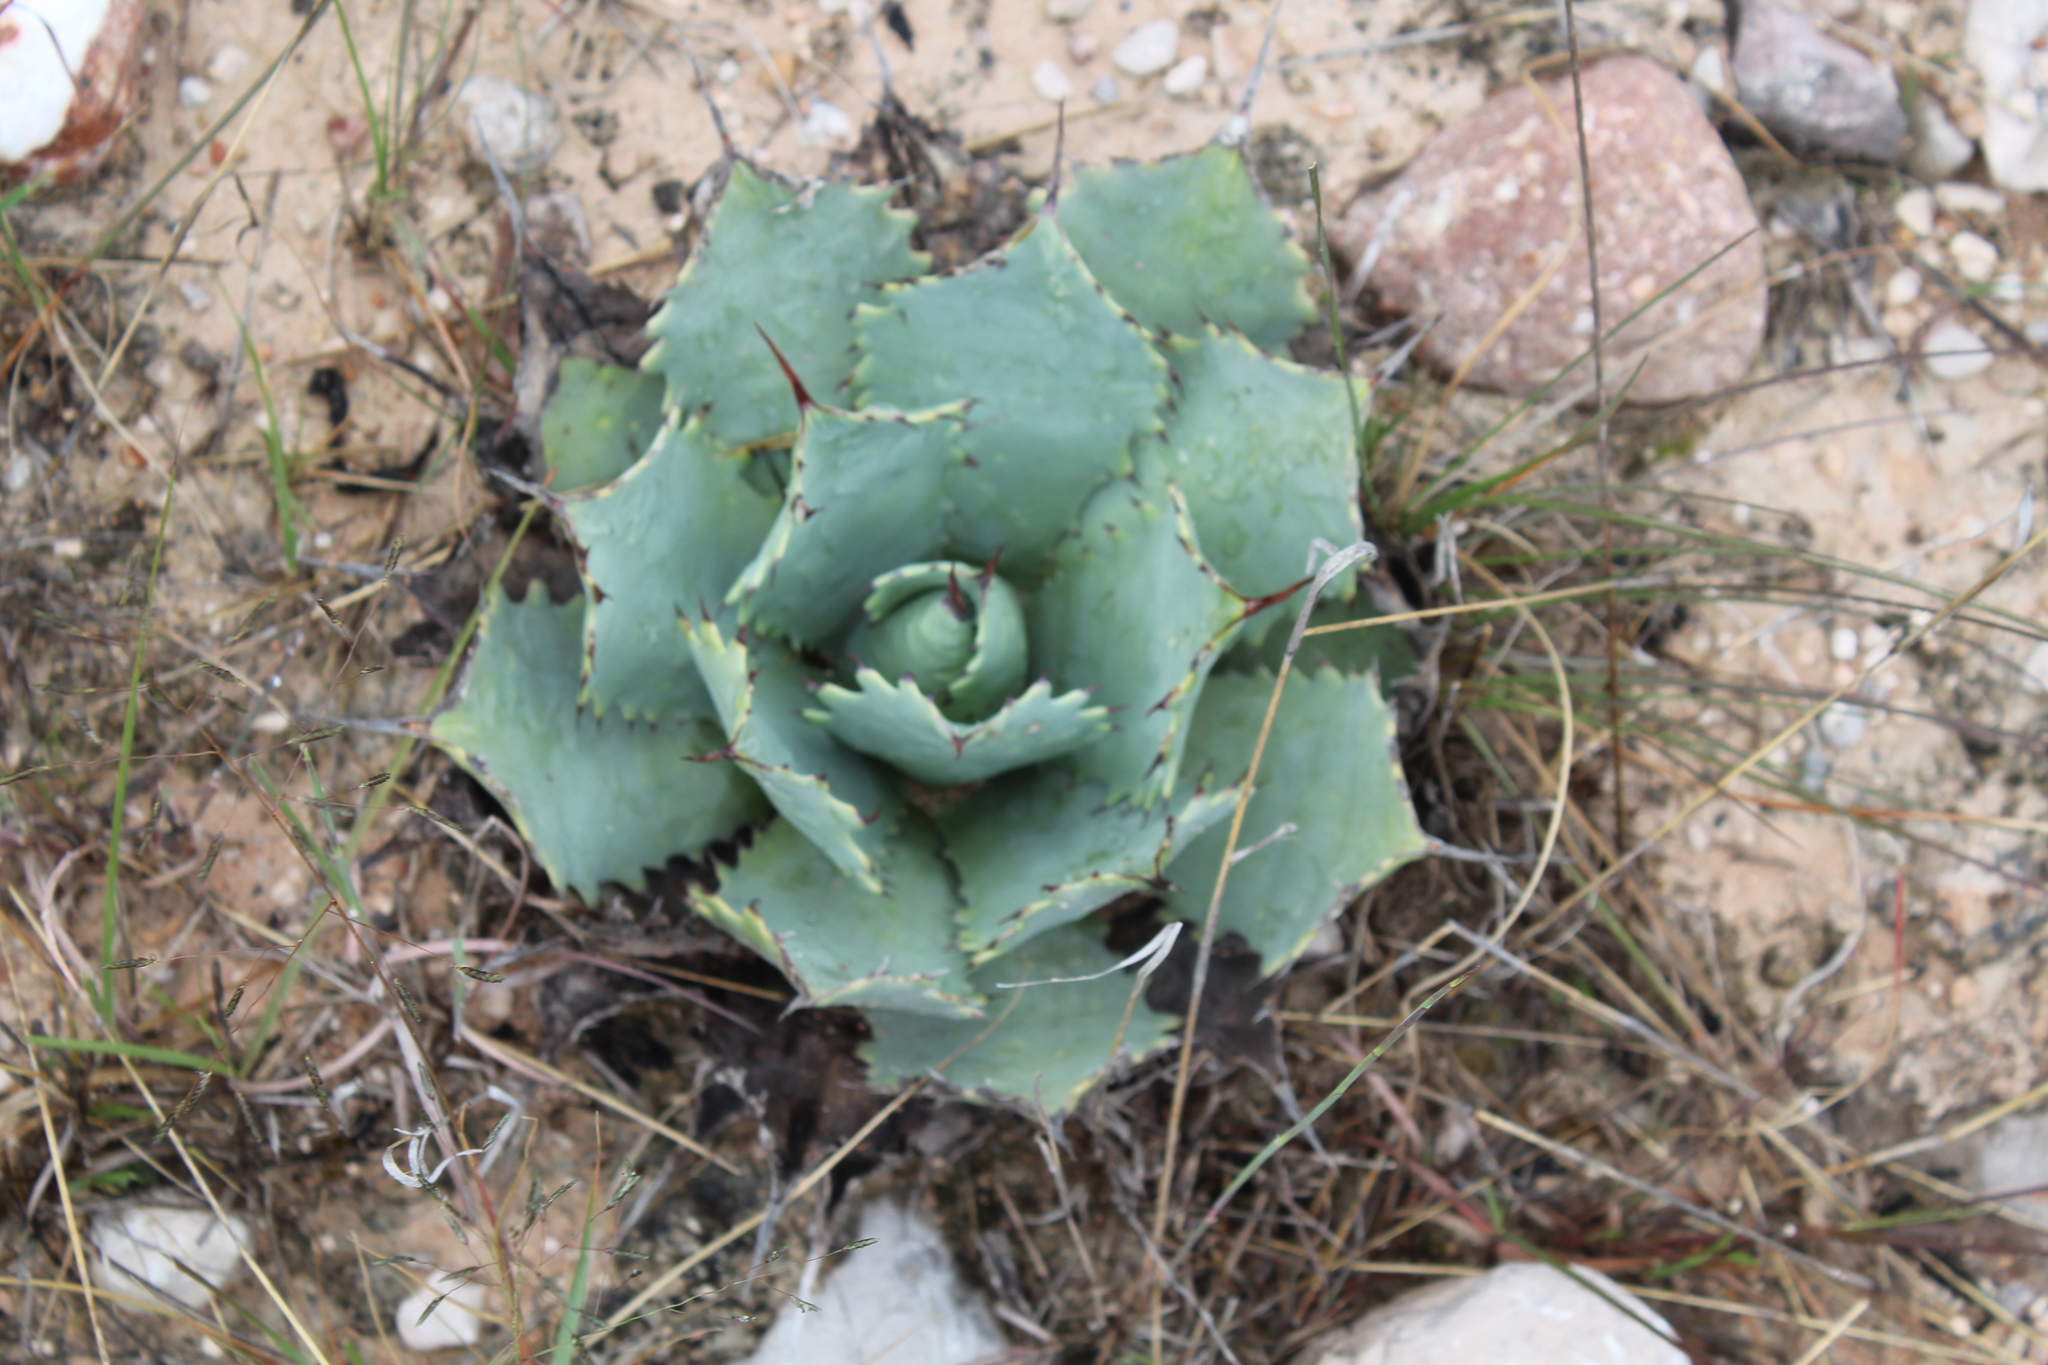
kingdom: Plantae
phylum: Tracheophyta
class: Liliopsida
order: Asparagales
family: Asparagaceae
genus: Agave
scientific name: Agave potatorum
